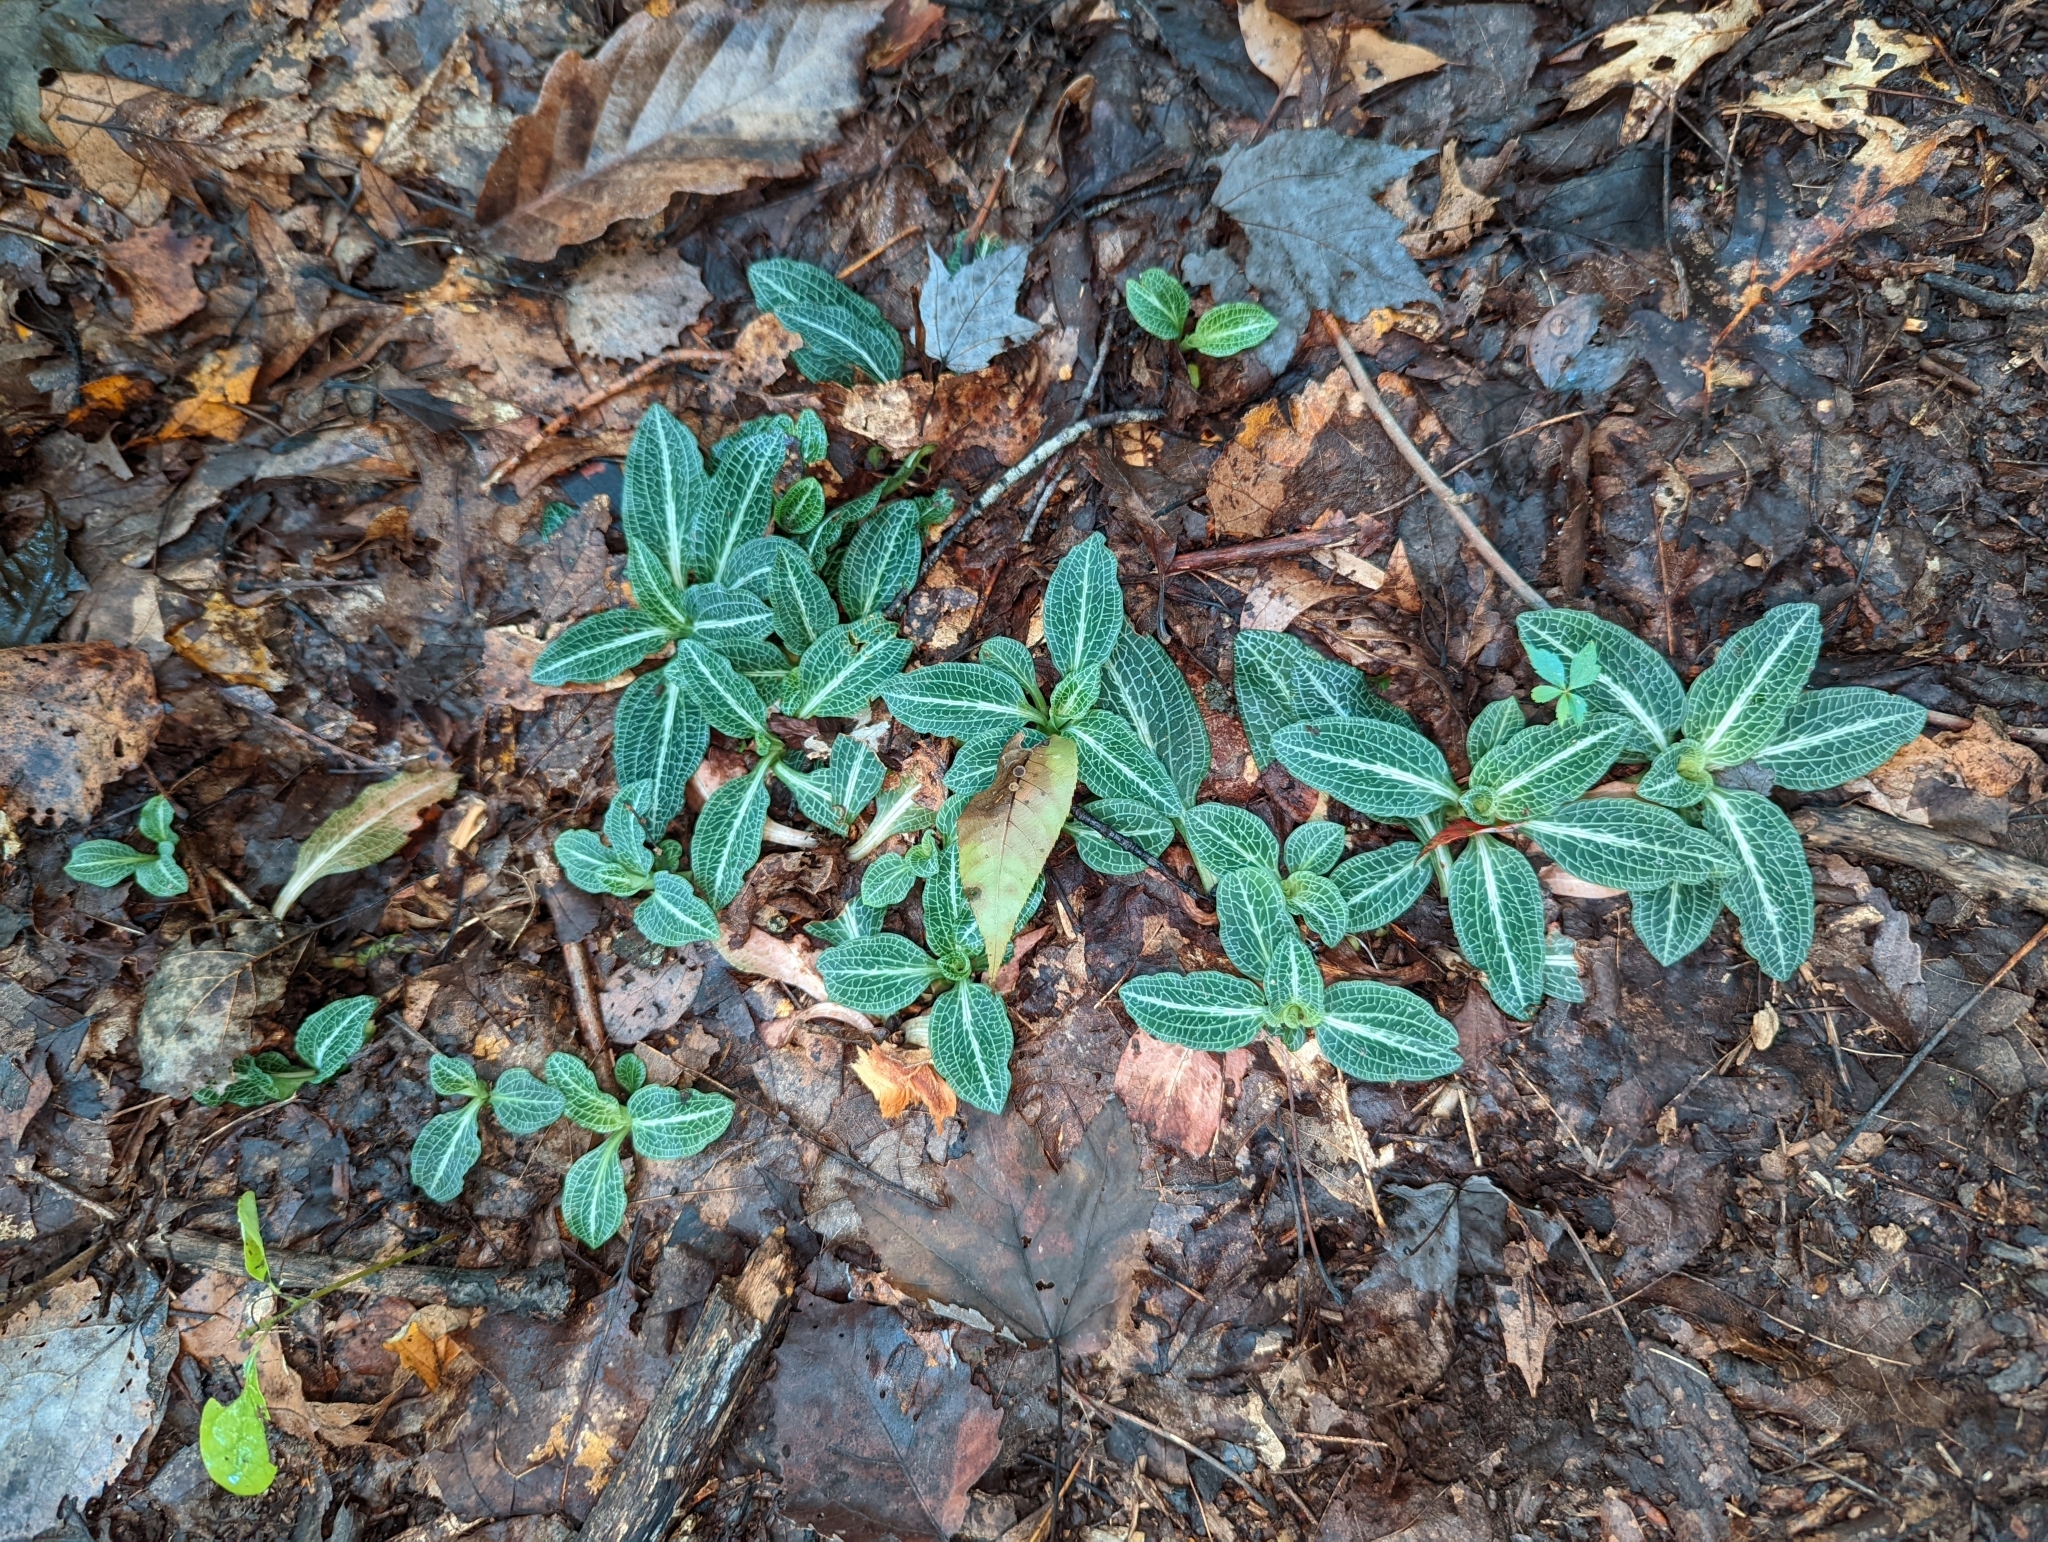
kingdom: Plantae
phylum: Tracheophyta
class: Liliopsida
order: Asparagales
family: Orchidaceae
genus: Goodyera
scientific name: Goodyera pubescens
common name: Downy rattlesnake-plantain
